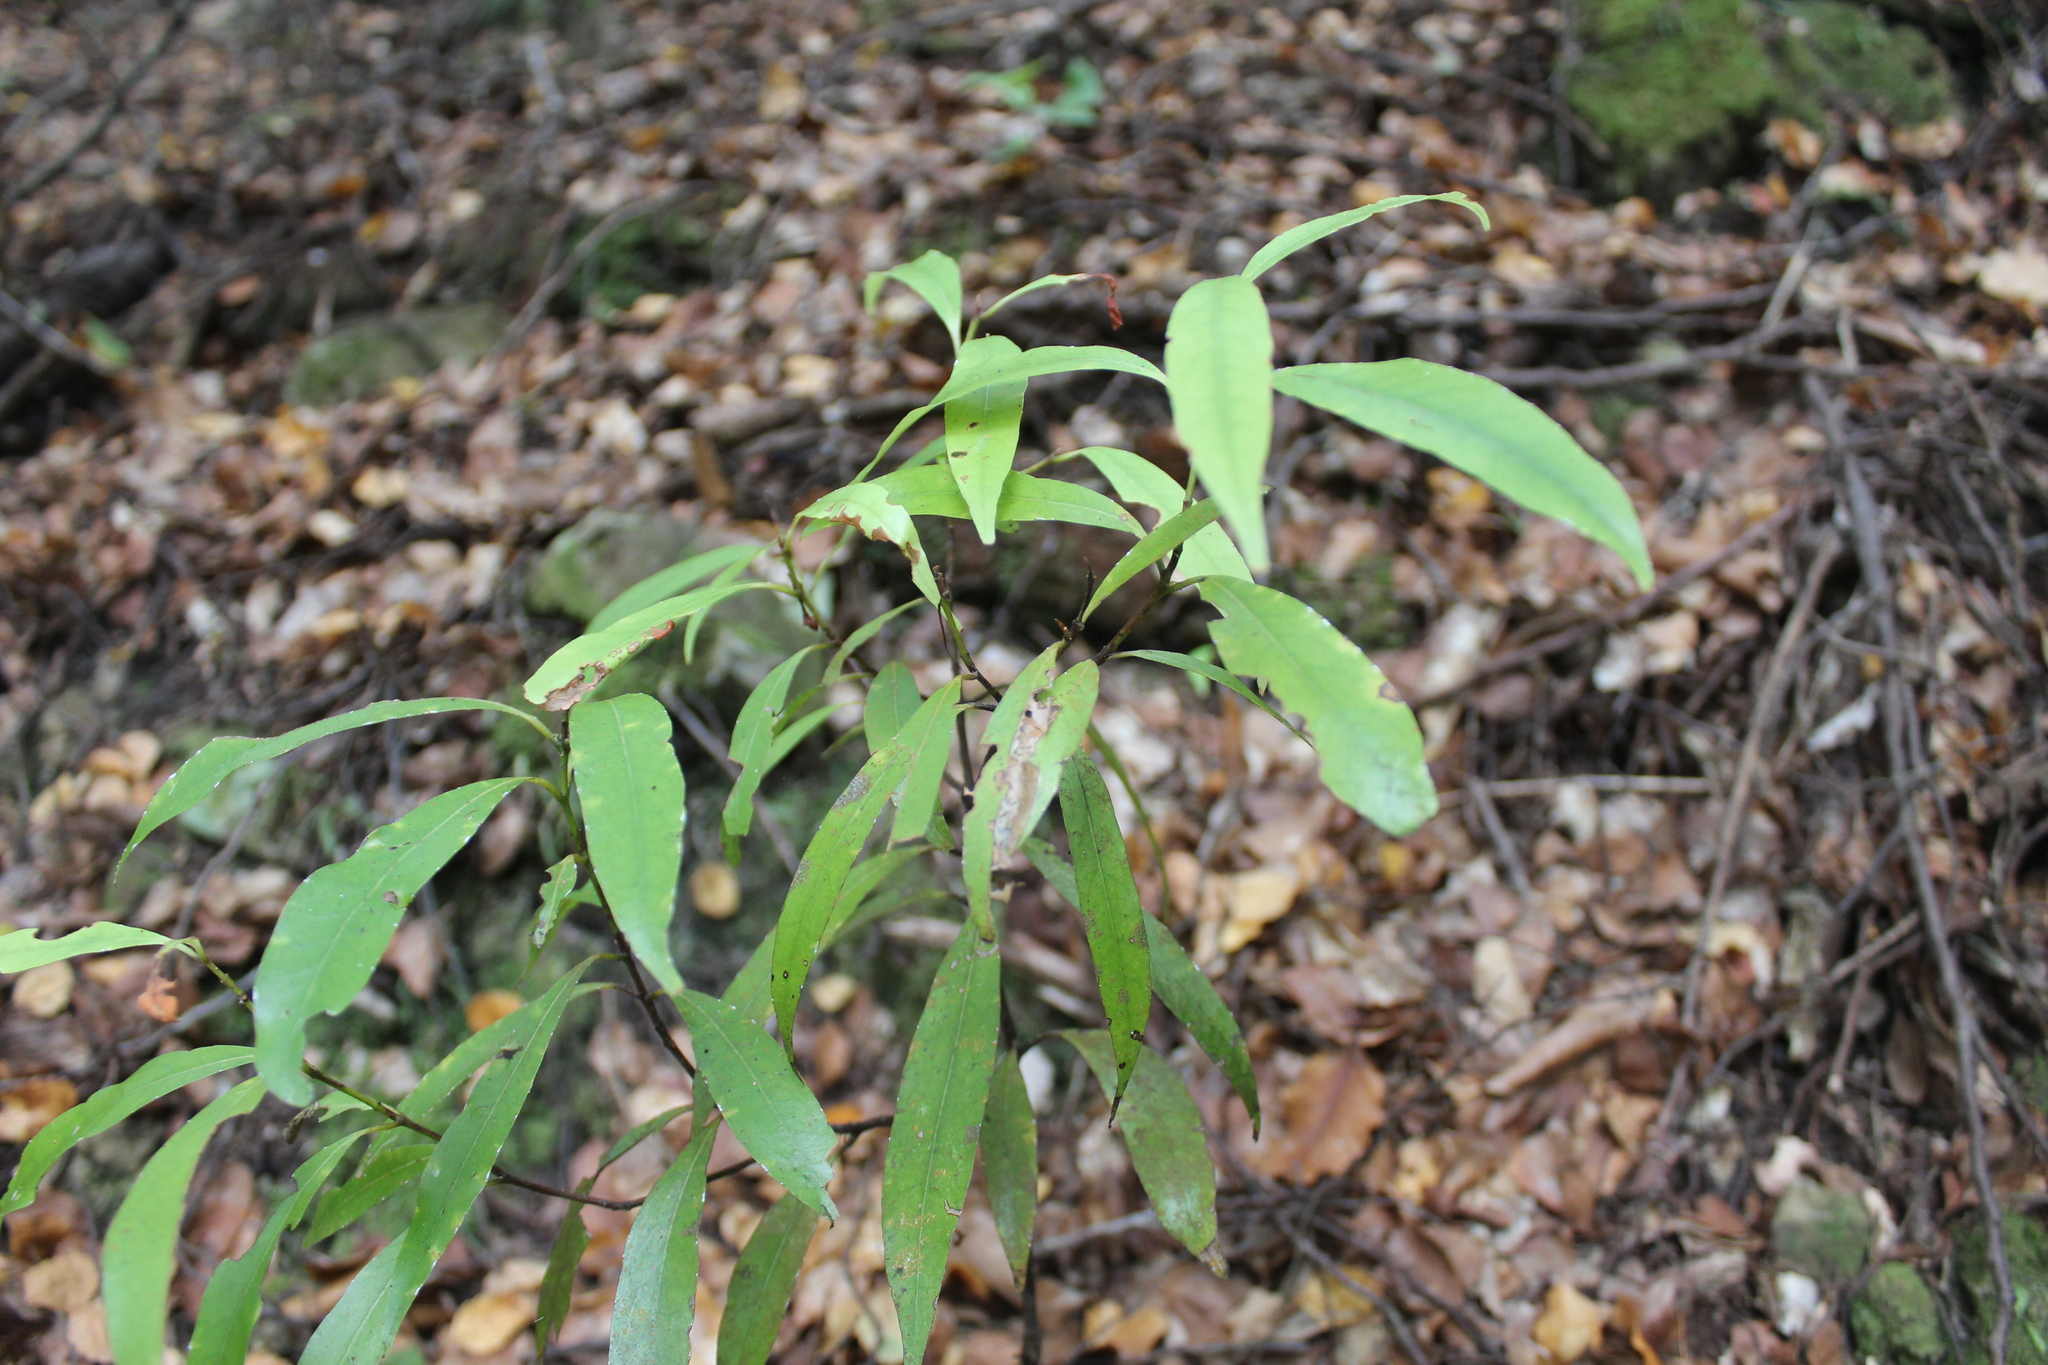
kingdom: Plantae
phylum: Tracheophyta
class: Magnoliopsida
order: Laurales
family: Lauraceae
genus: Beilschmiedia
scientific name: Beilschmiedia tawa
